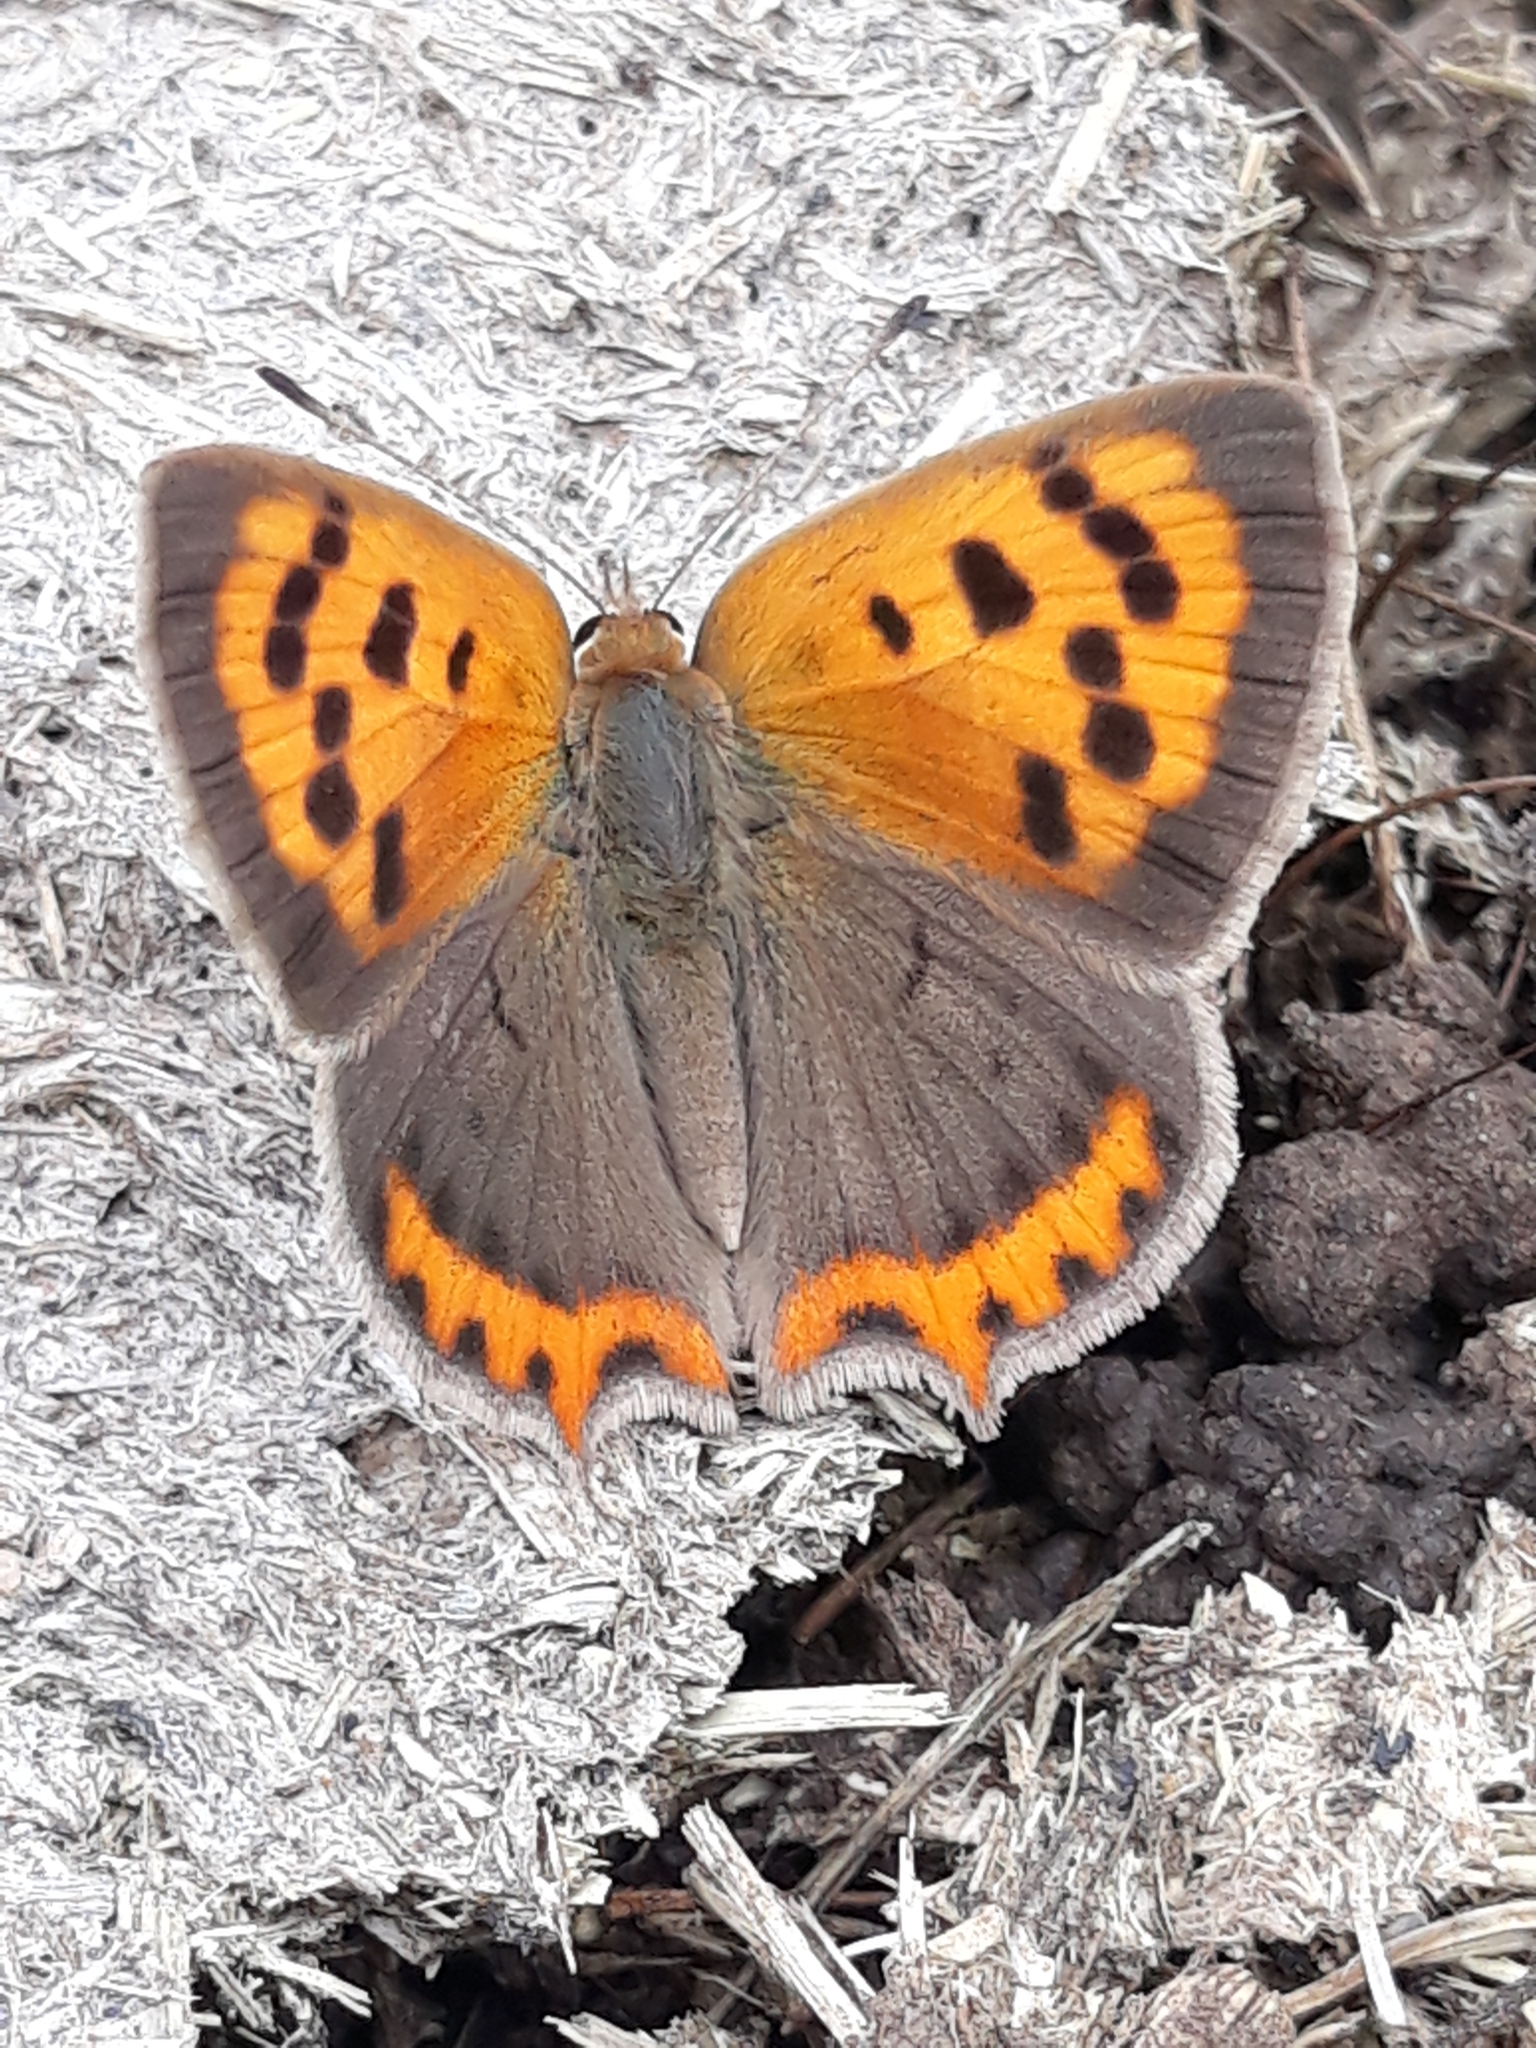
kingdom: Animalia
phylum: Arthropoda
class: Insecta
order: Lepidoptera
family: Lycaenidae
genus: Lycaena
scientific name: Lycaena phlaeas
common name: Small copper
